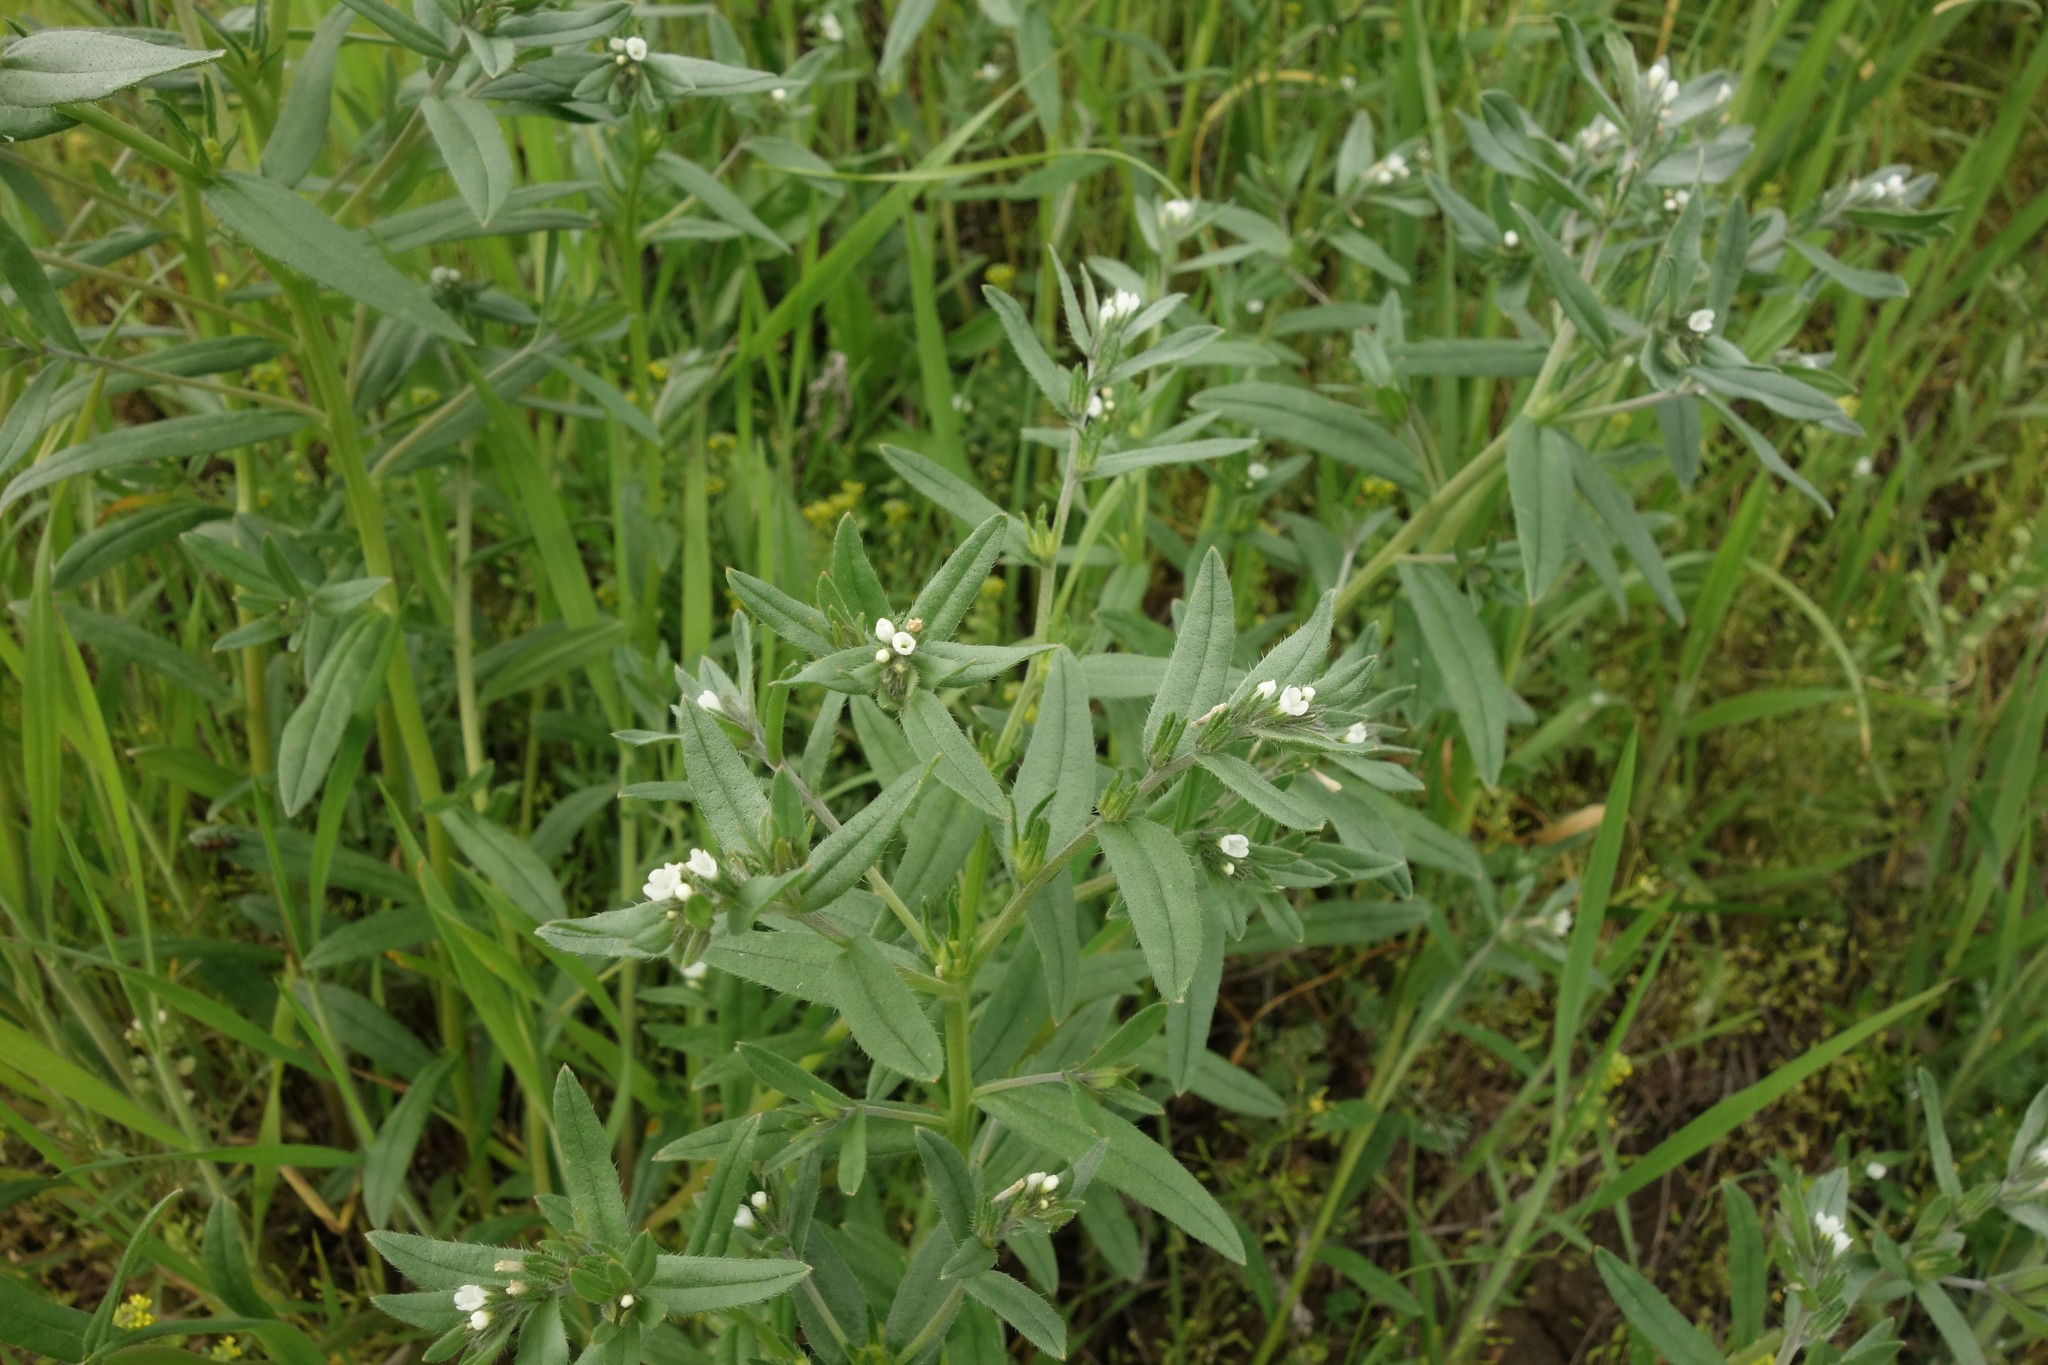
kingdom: Plantae
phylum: Tracheophyta
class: Magnoliopsida
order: Boraginales
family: Boraginaceae
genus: Buglossoides
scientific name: Buglossoides arvensis
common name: Corn gromwell
